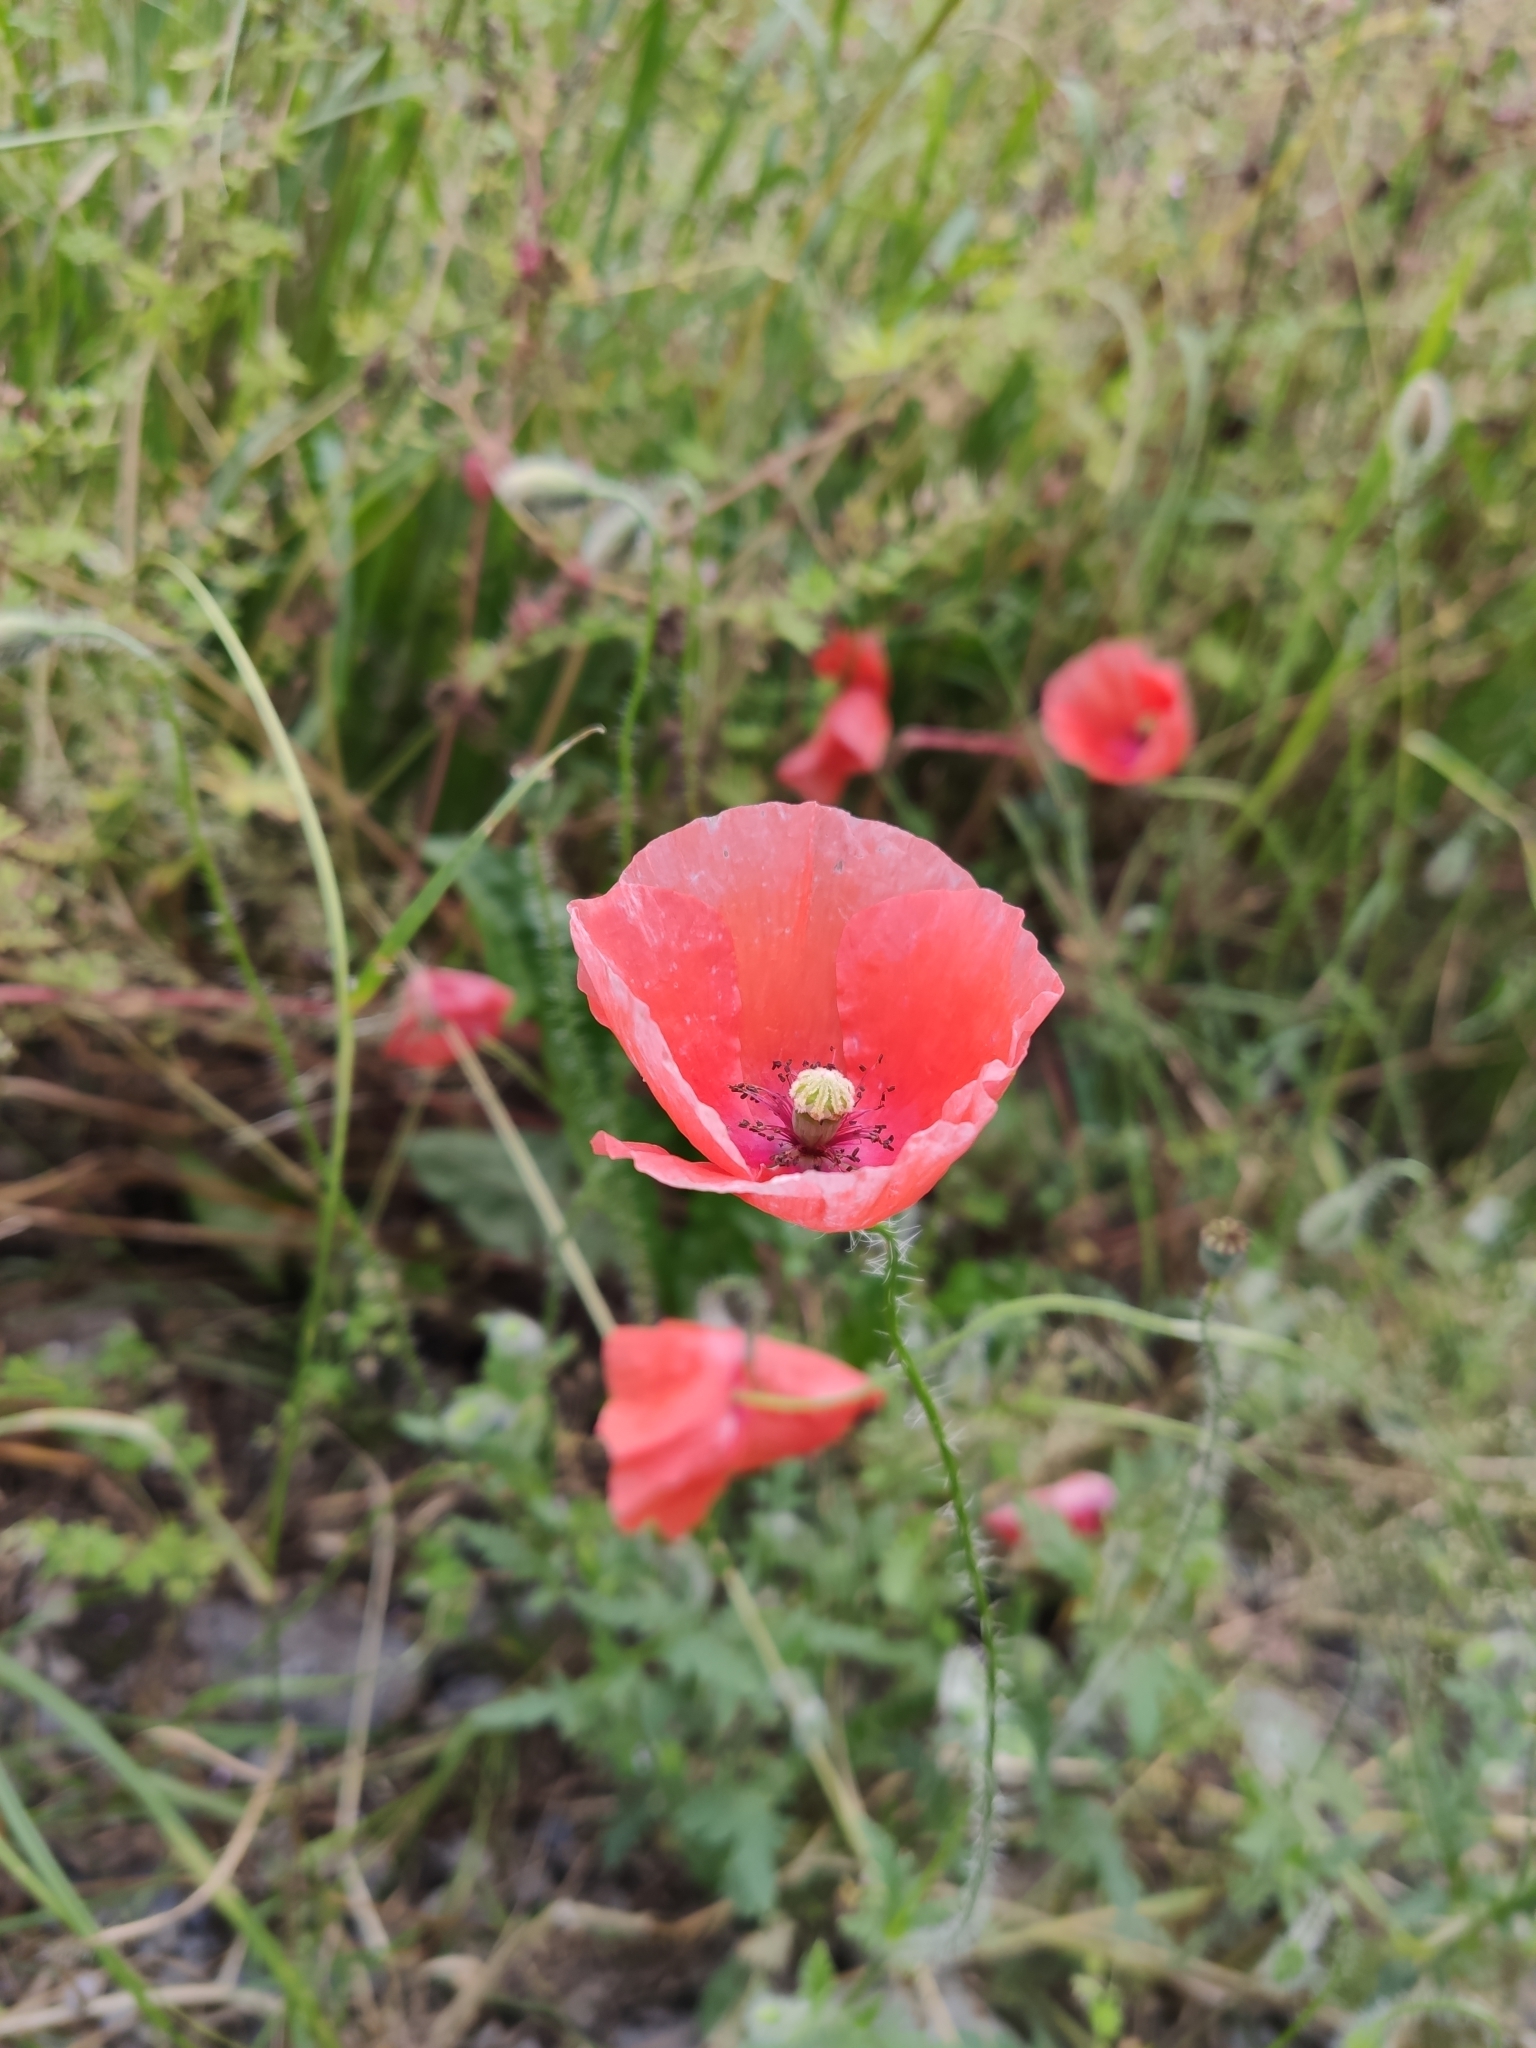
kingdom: Plantae
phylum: Tracheophyta
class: Magnoliopsida
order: Ranunculales
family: Papaveraceae
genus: Papaver
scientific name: Papaver rhoeas
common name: Corn poppy
